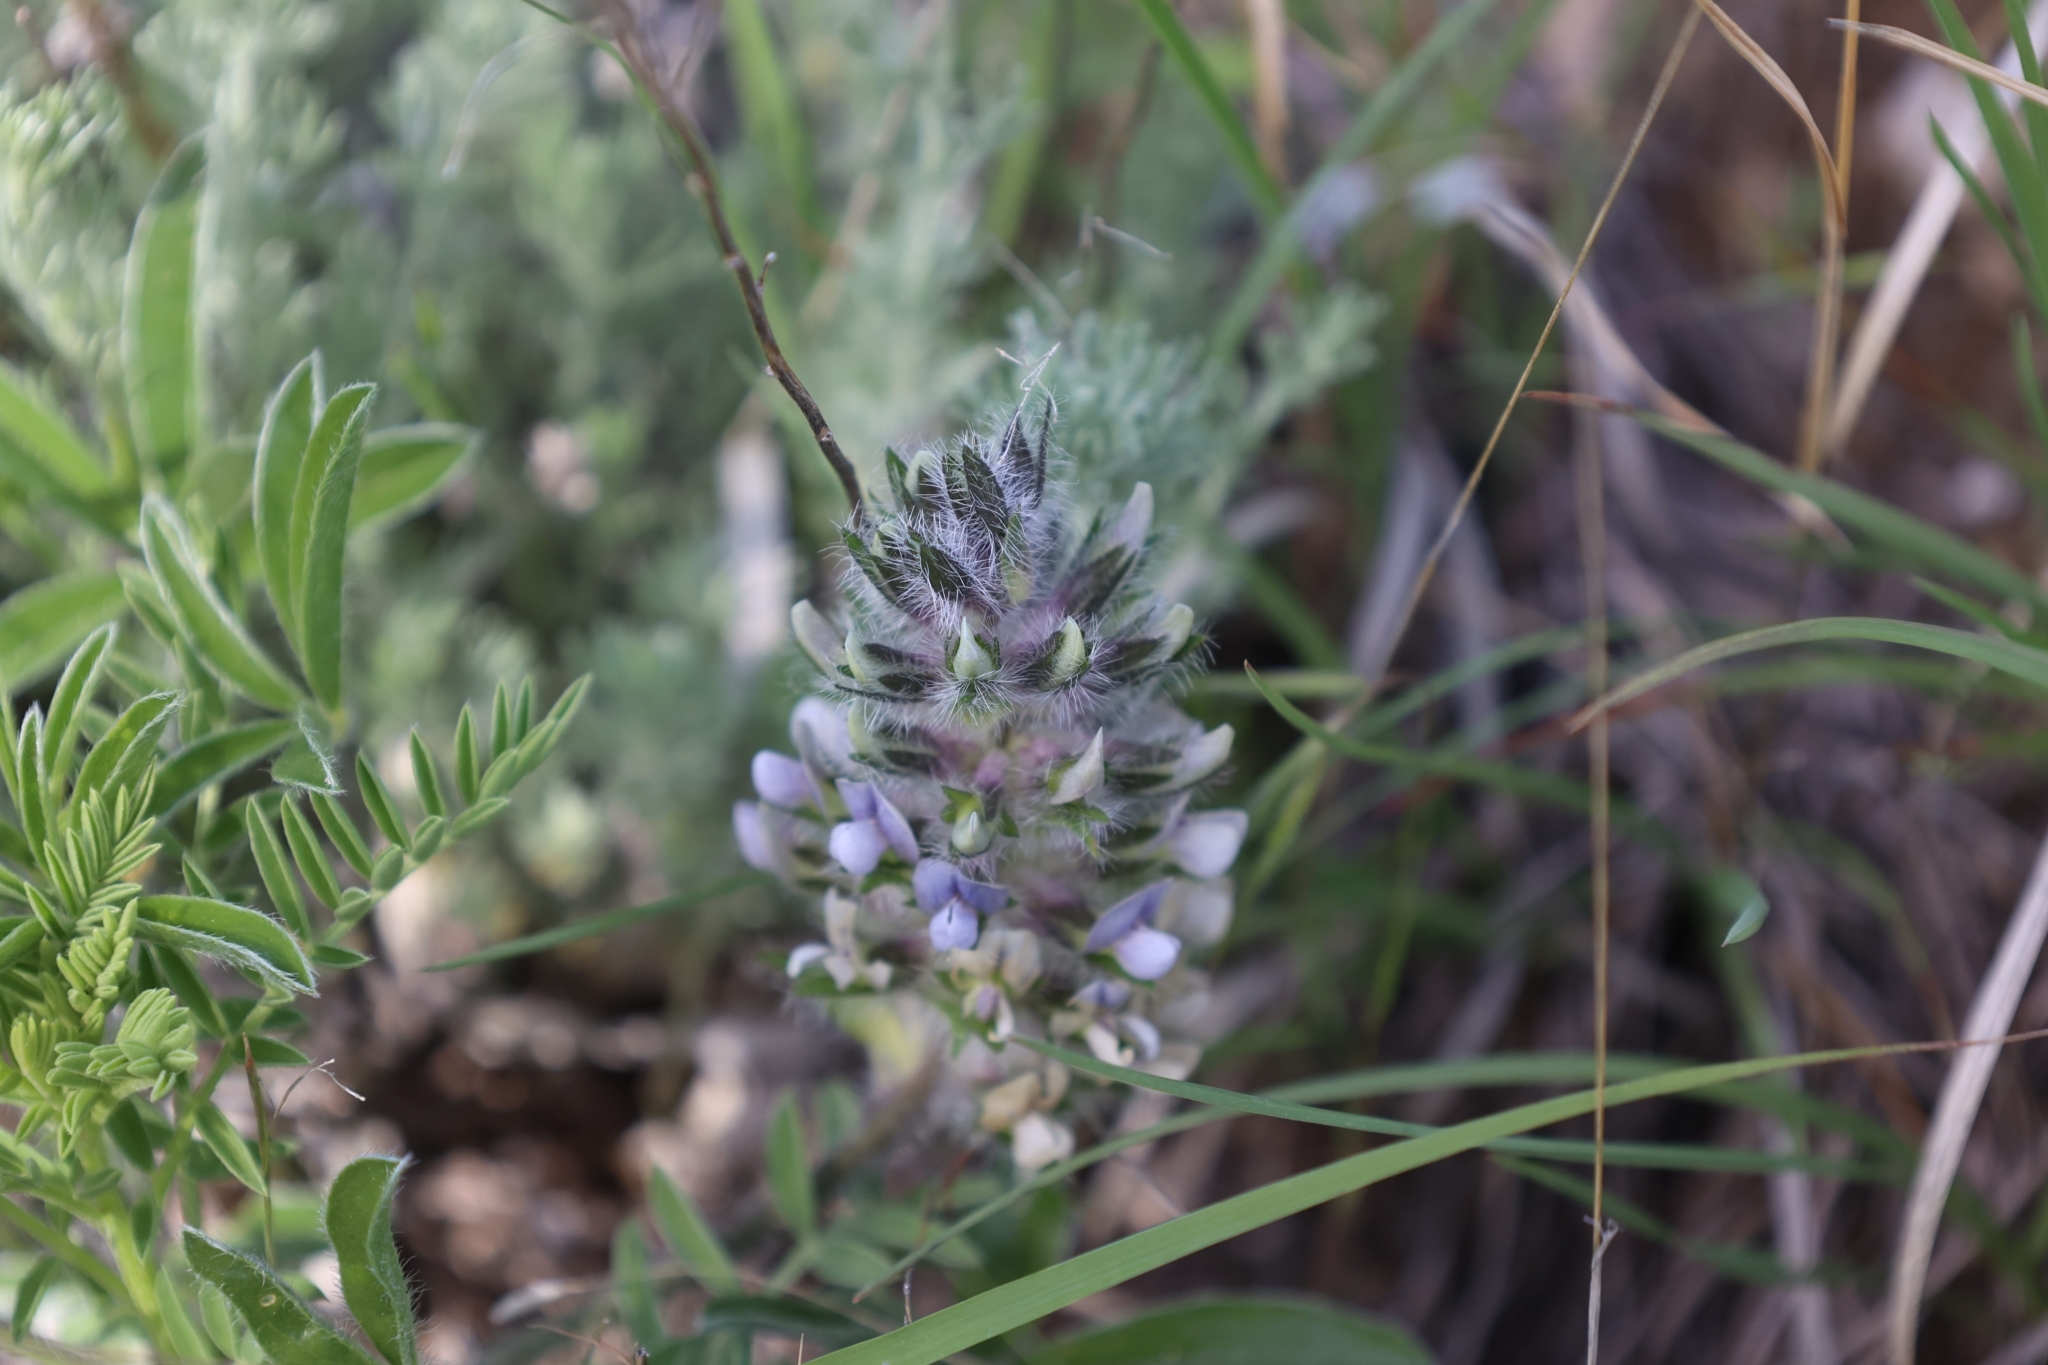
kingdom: Plantae
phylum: Tracheophyta
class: Magnoliopsida
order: Fabales
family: Fabaceae
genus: Pediomelum
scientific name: Pediomelum esculentum
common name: Indian-turnip
